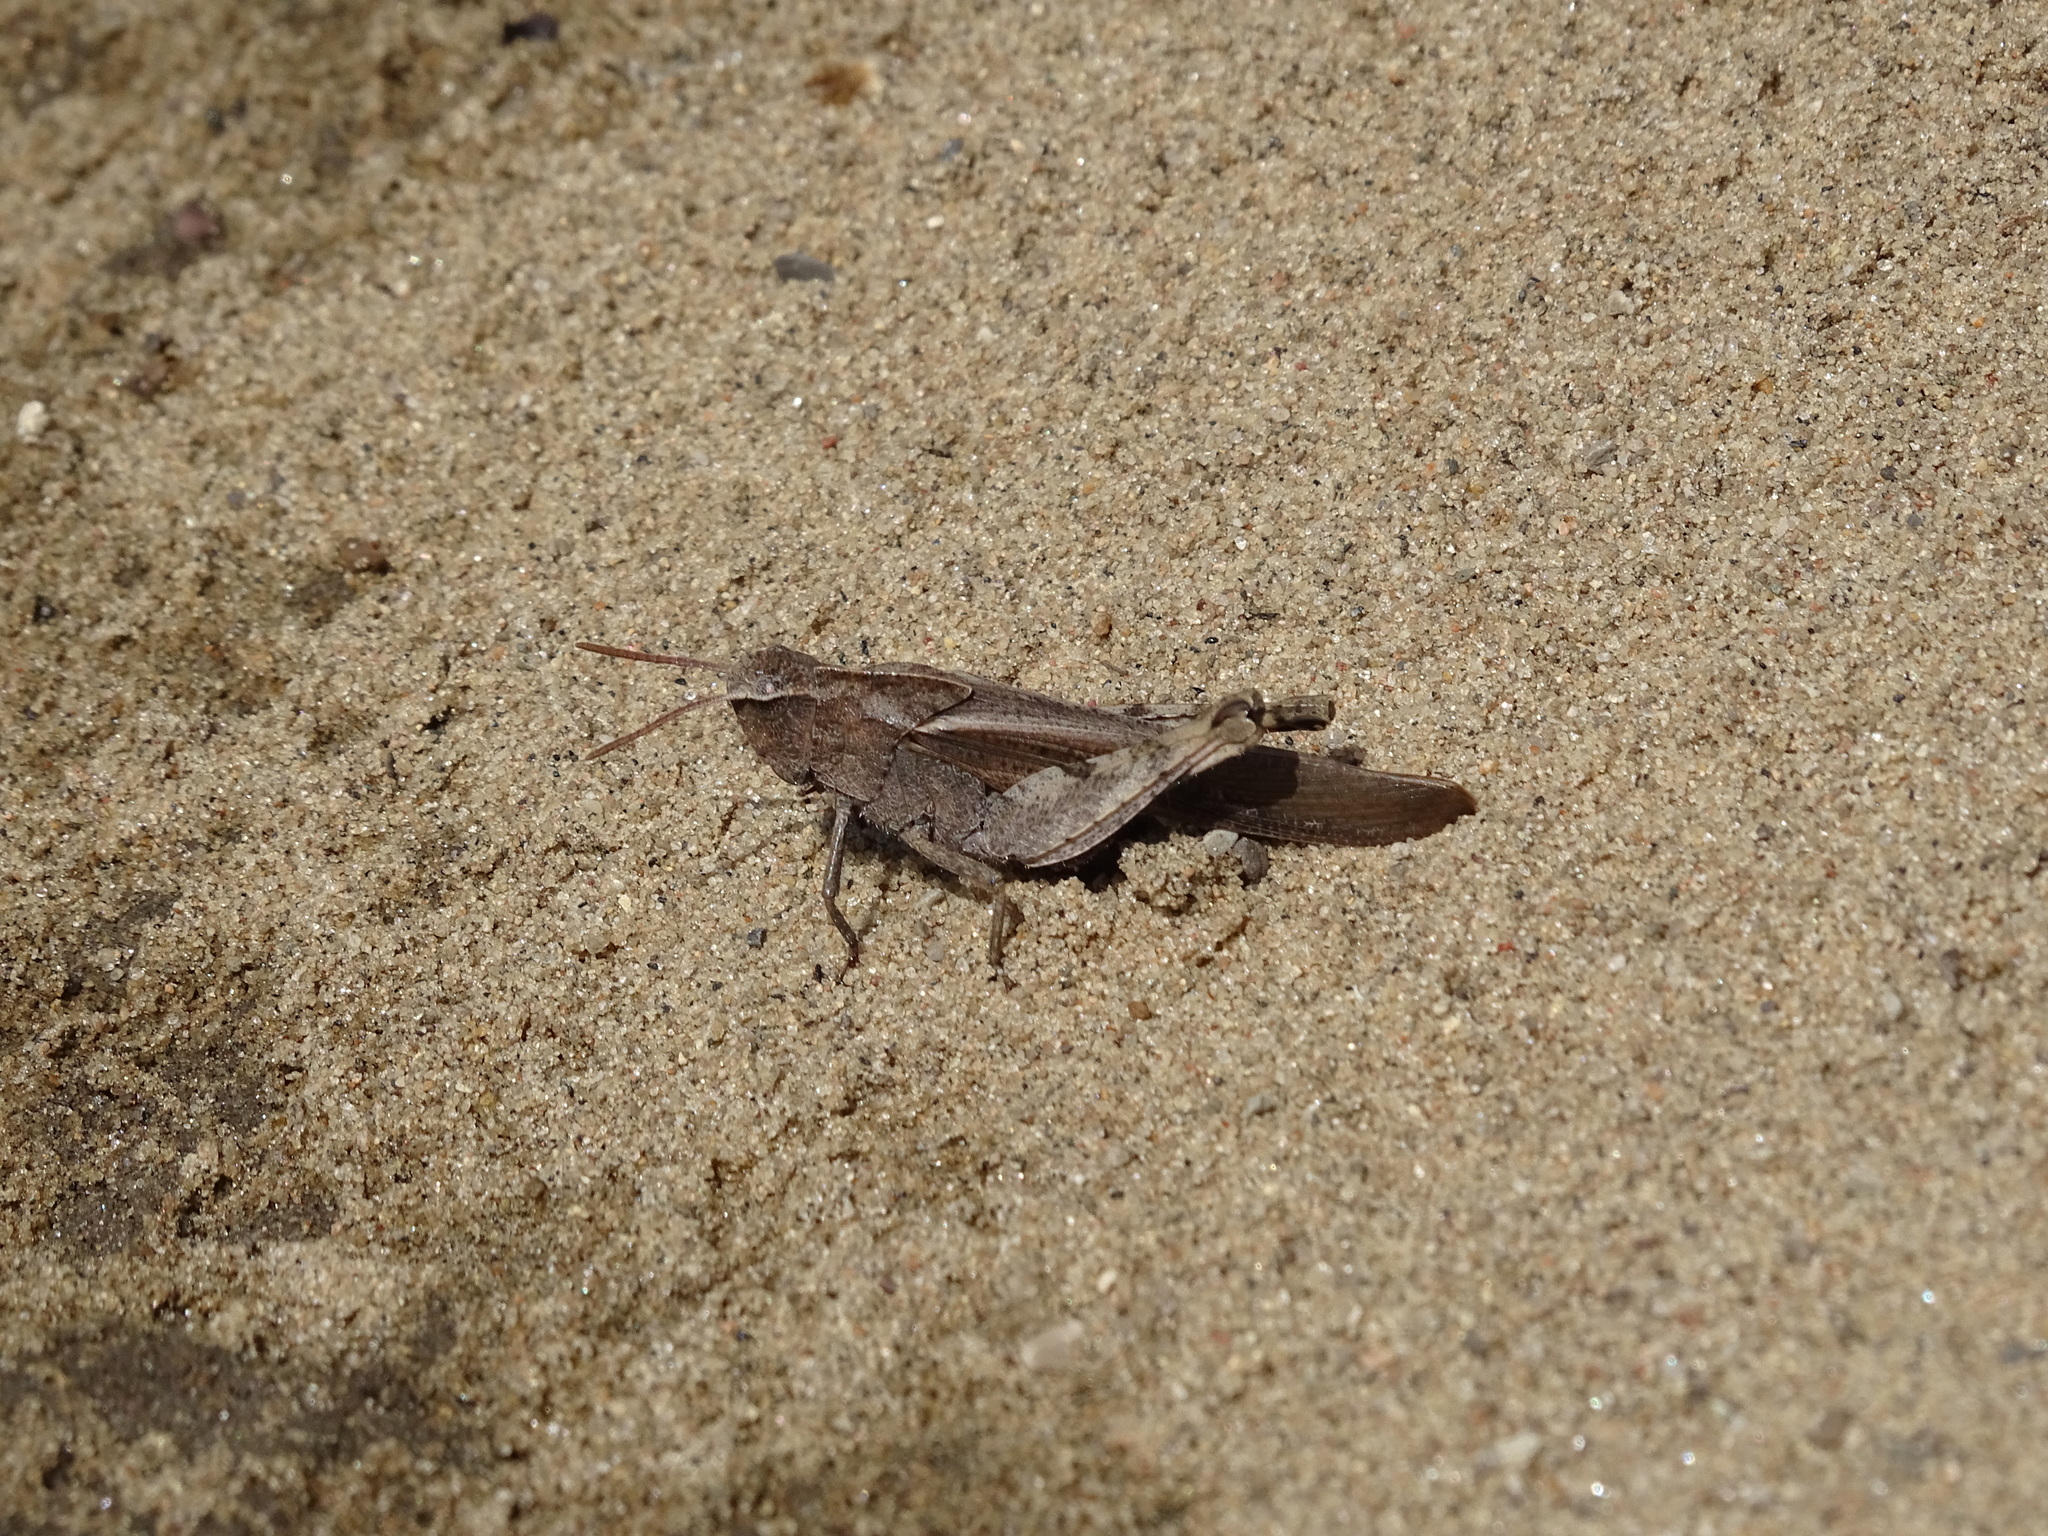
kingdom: Animalia
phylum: Arthropoda
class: Insecta
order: Orthoptera
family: Acrididae
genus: Chortophaga
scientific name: Chortophaga viridifasciata
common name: Green-striped grasshopper
